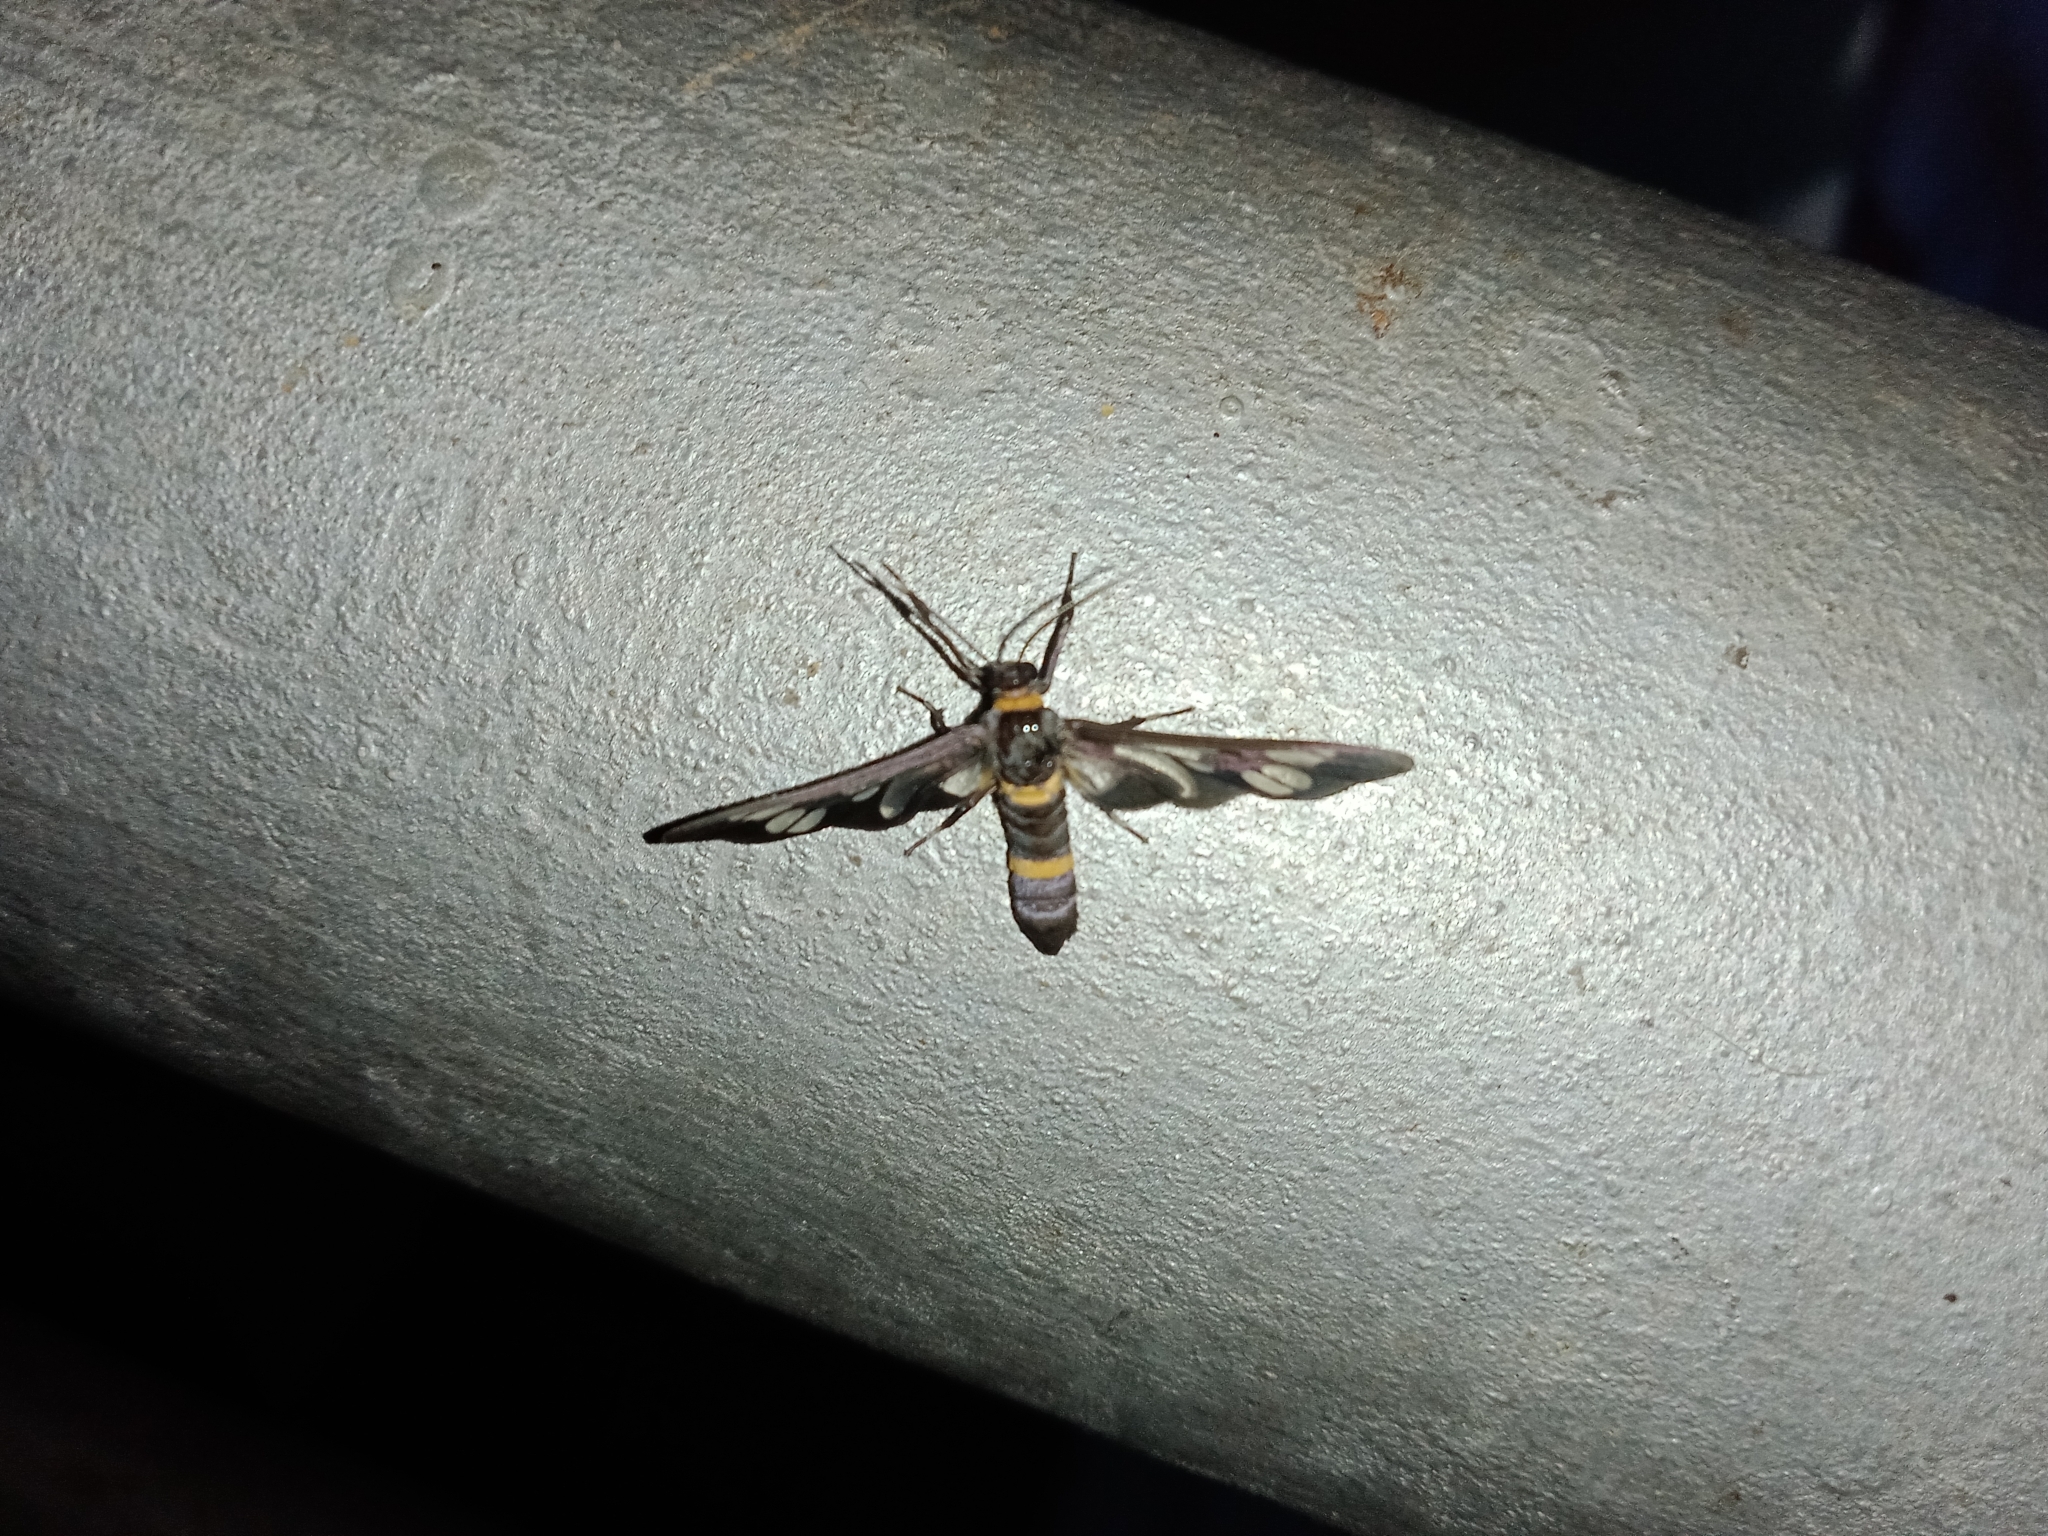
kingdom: Animalia
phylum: Arthropoda
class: Insecta
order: Lepidoptera
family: Erebidae
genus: Syntomoides
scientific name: Syntomoides imaon
